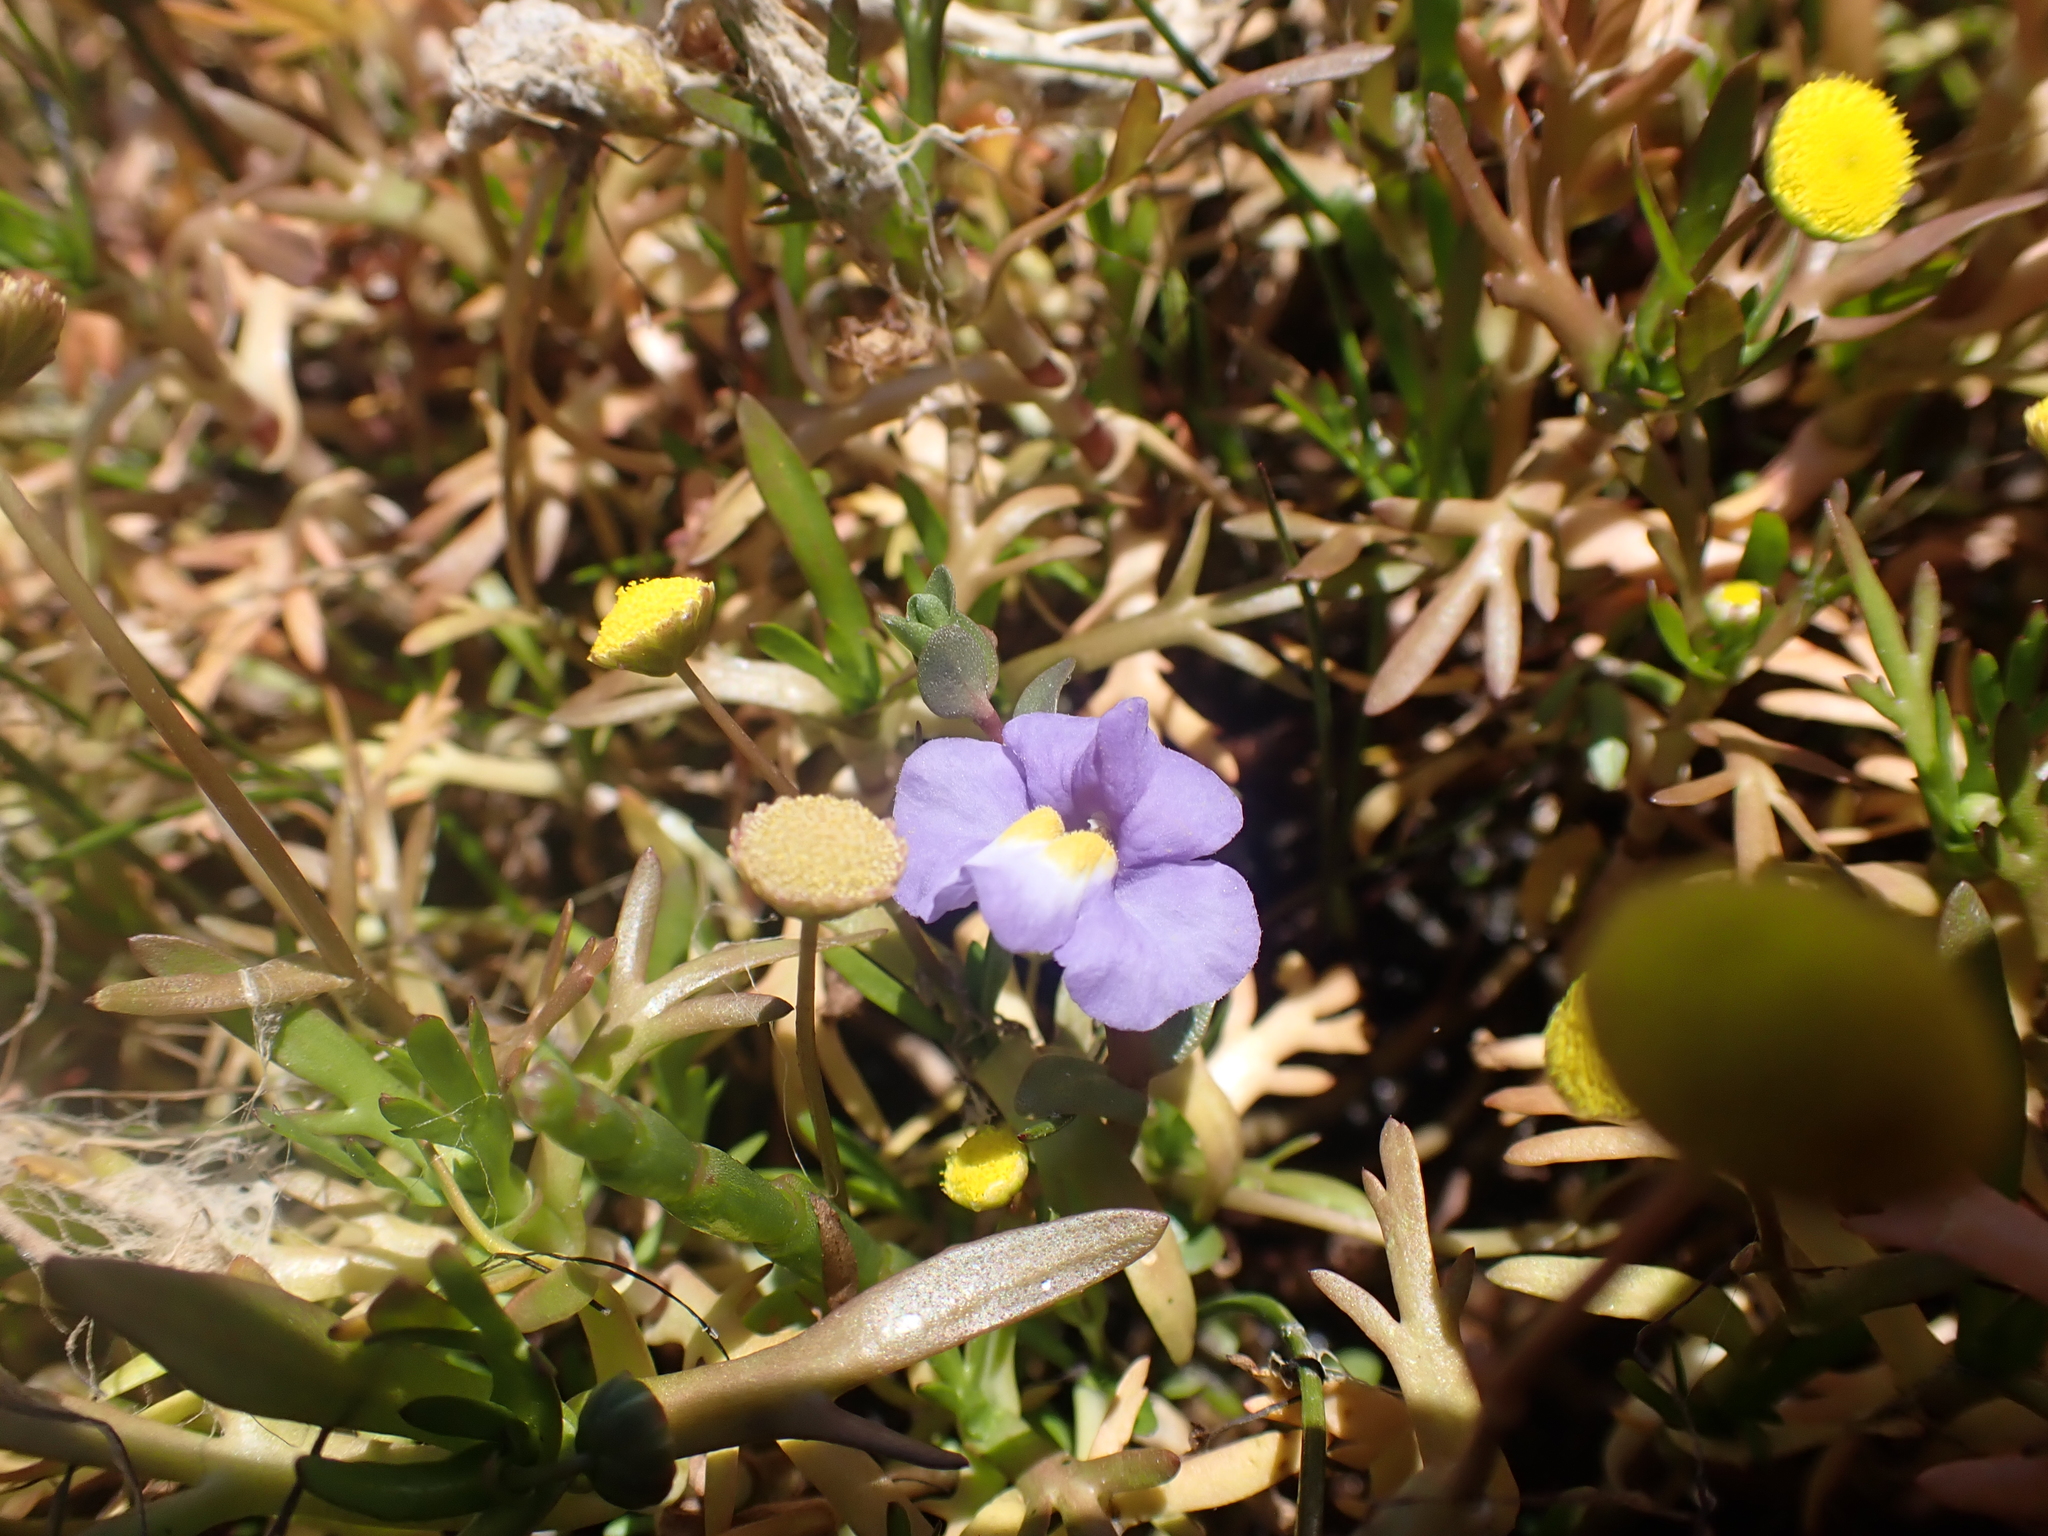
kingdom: Plantae
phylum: Tracheophyta
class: Magnoliopsida
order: Lamiales
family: Phrymaceae
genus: Thyridia
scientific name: Thyridia repens
